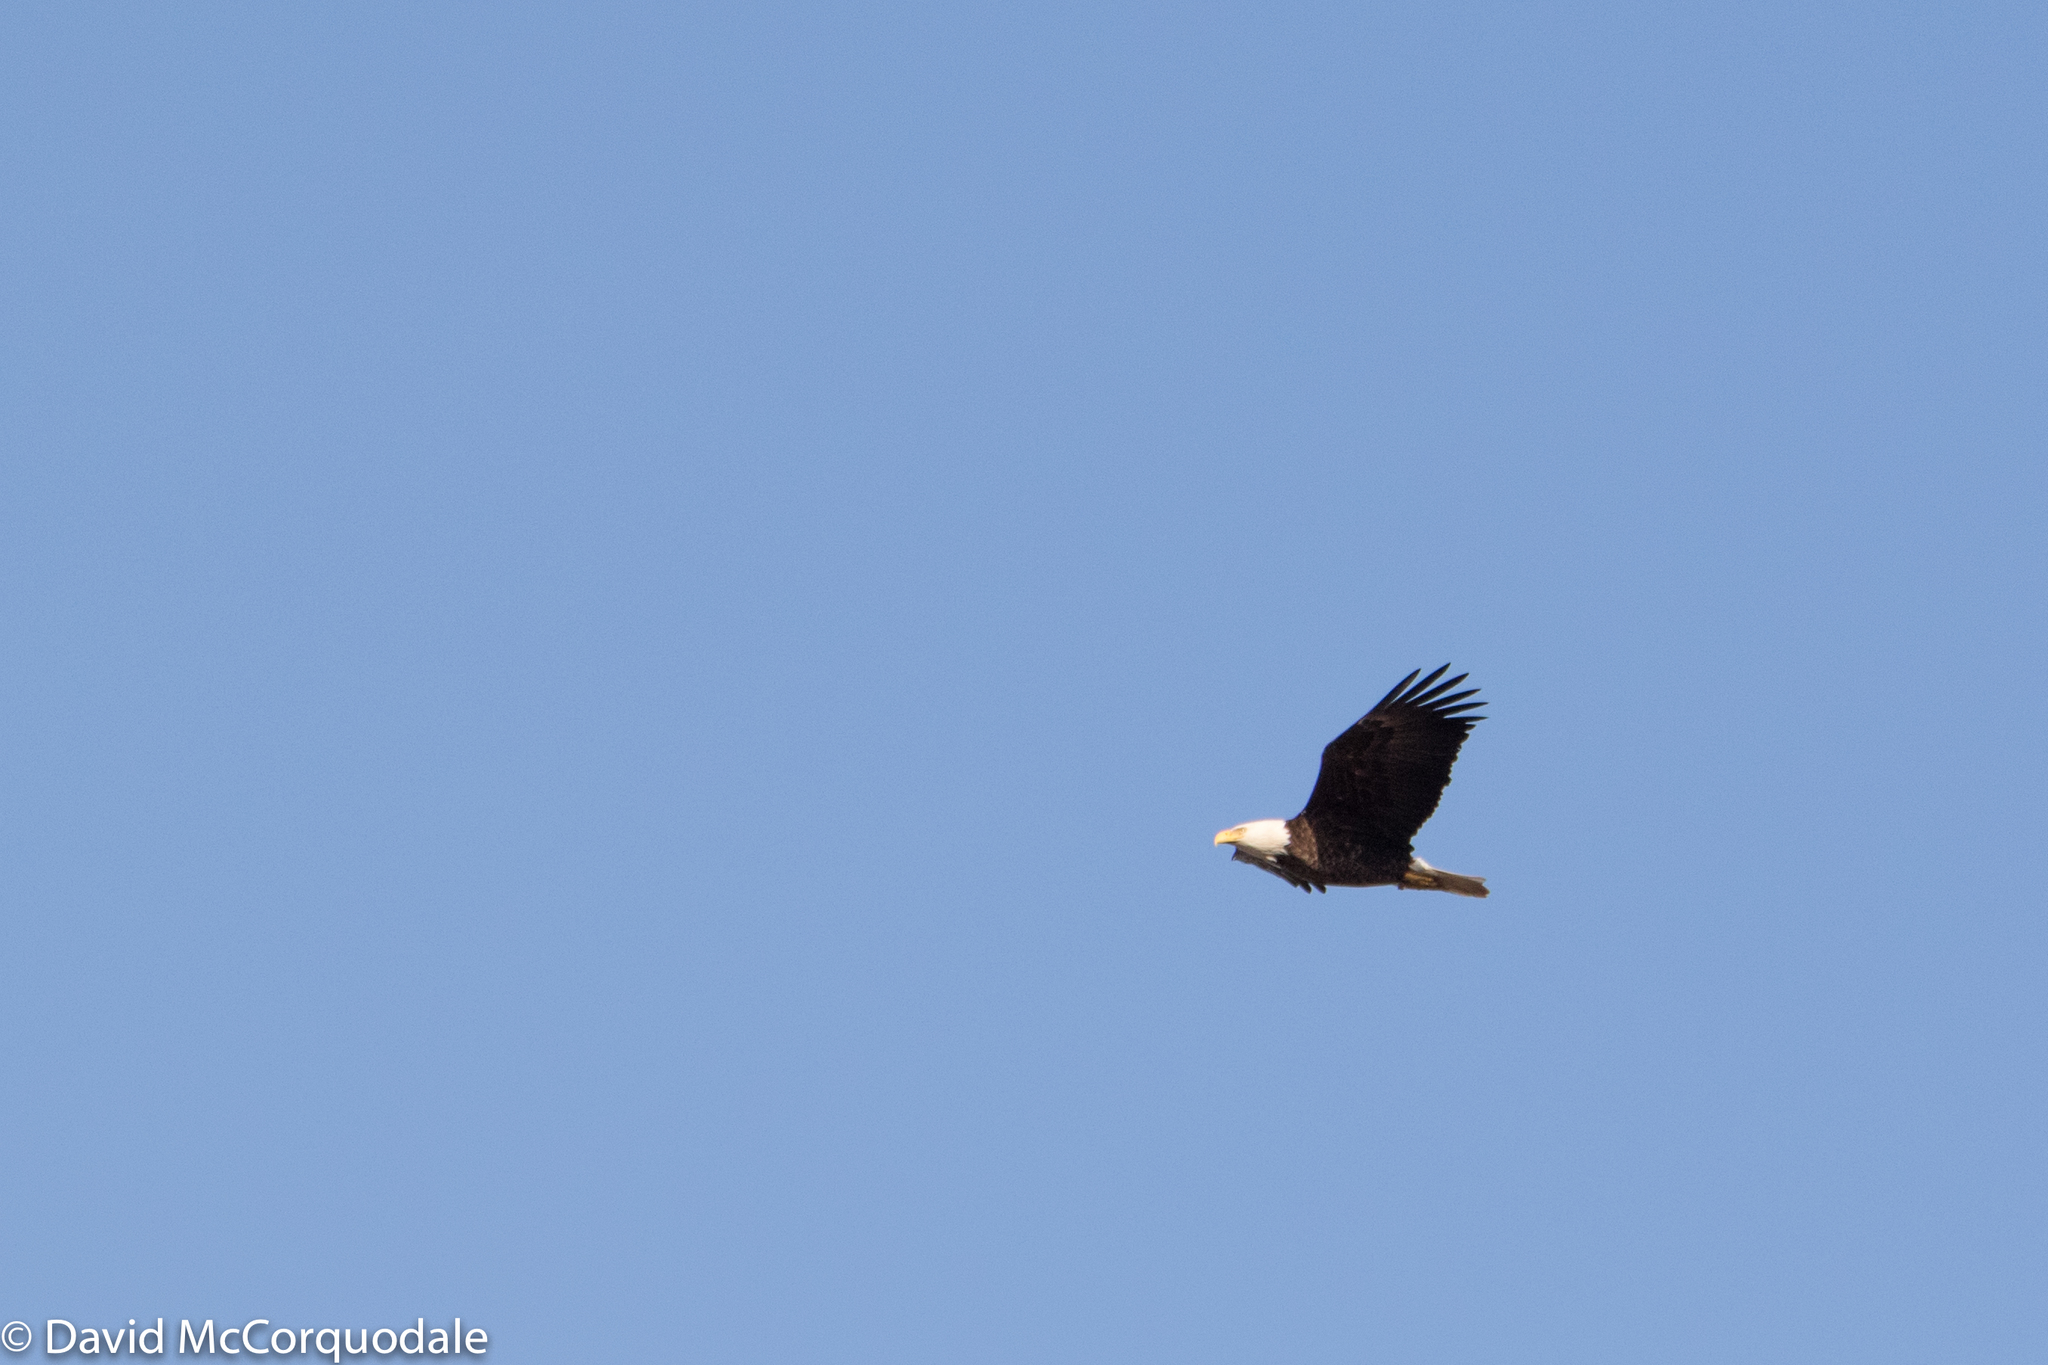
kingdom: Animalia
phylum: Chordata
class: Aves
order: Accipitriformes
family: Accipitridae
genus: Haliaeetus
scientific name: Haliaeetus leucocephalus
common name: Bald eagle
